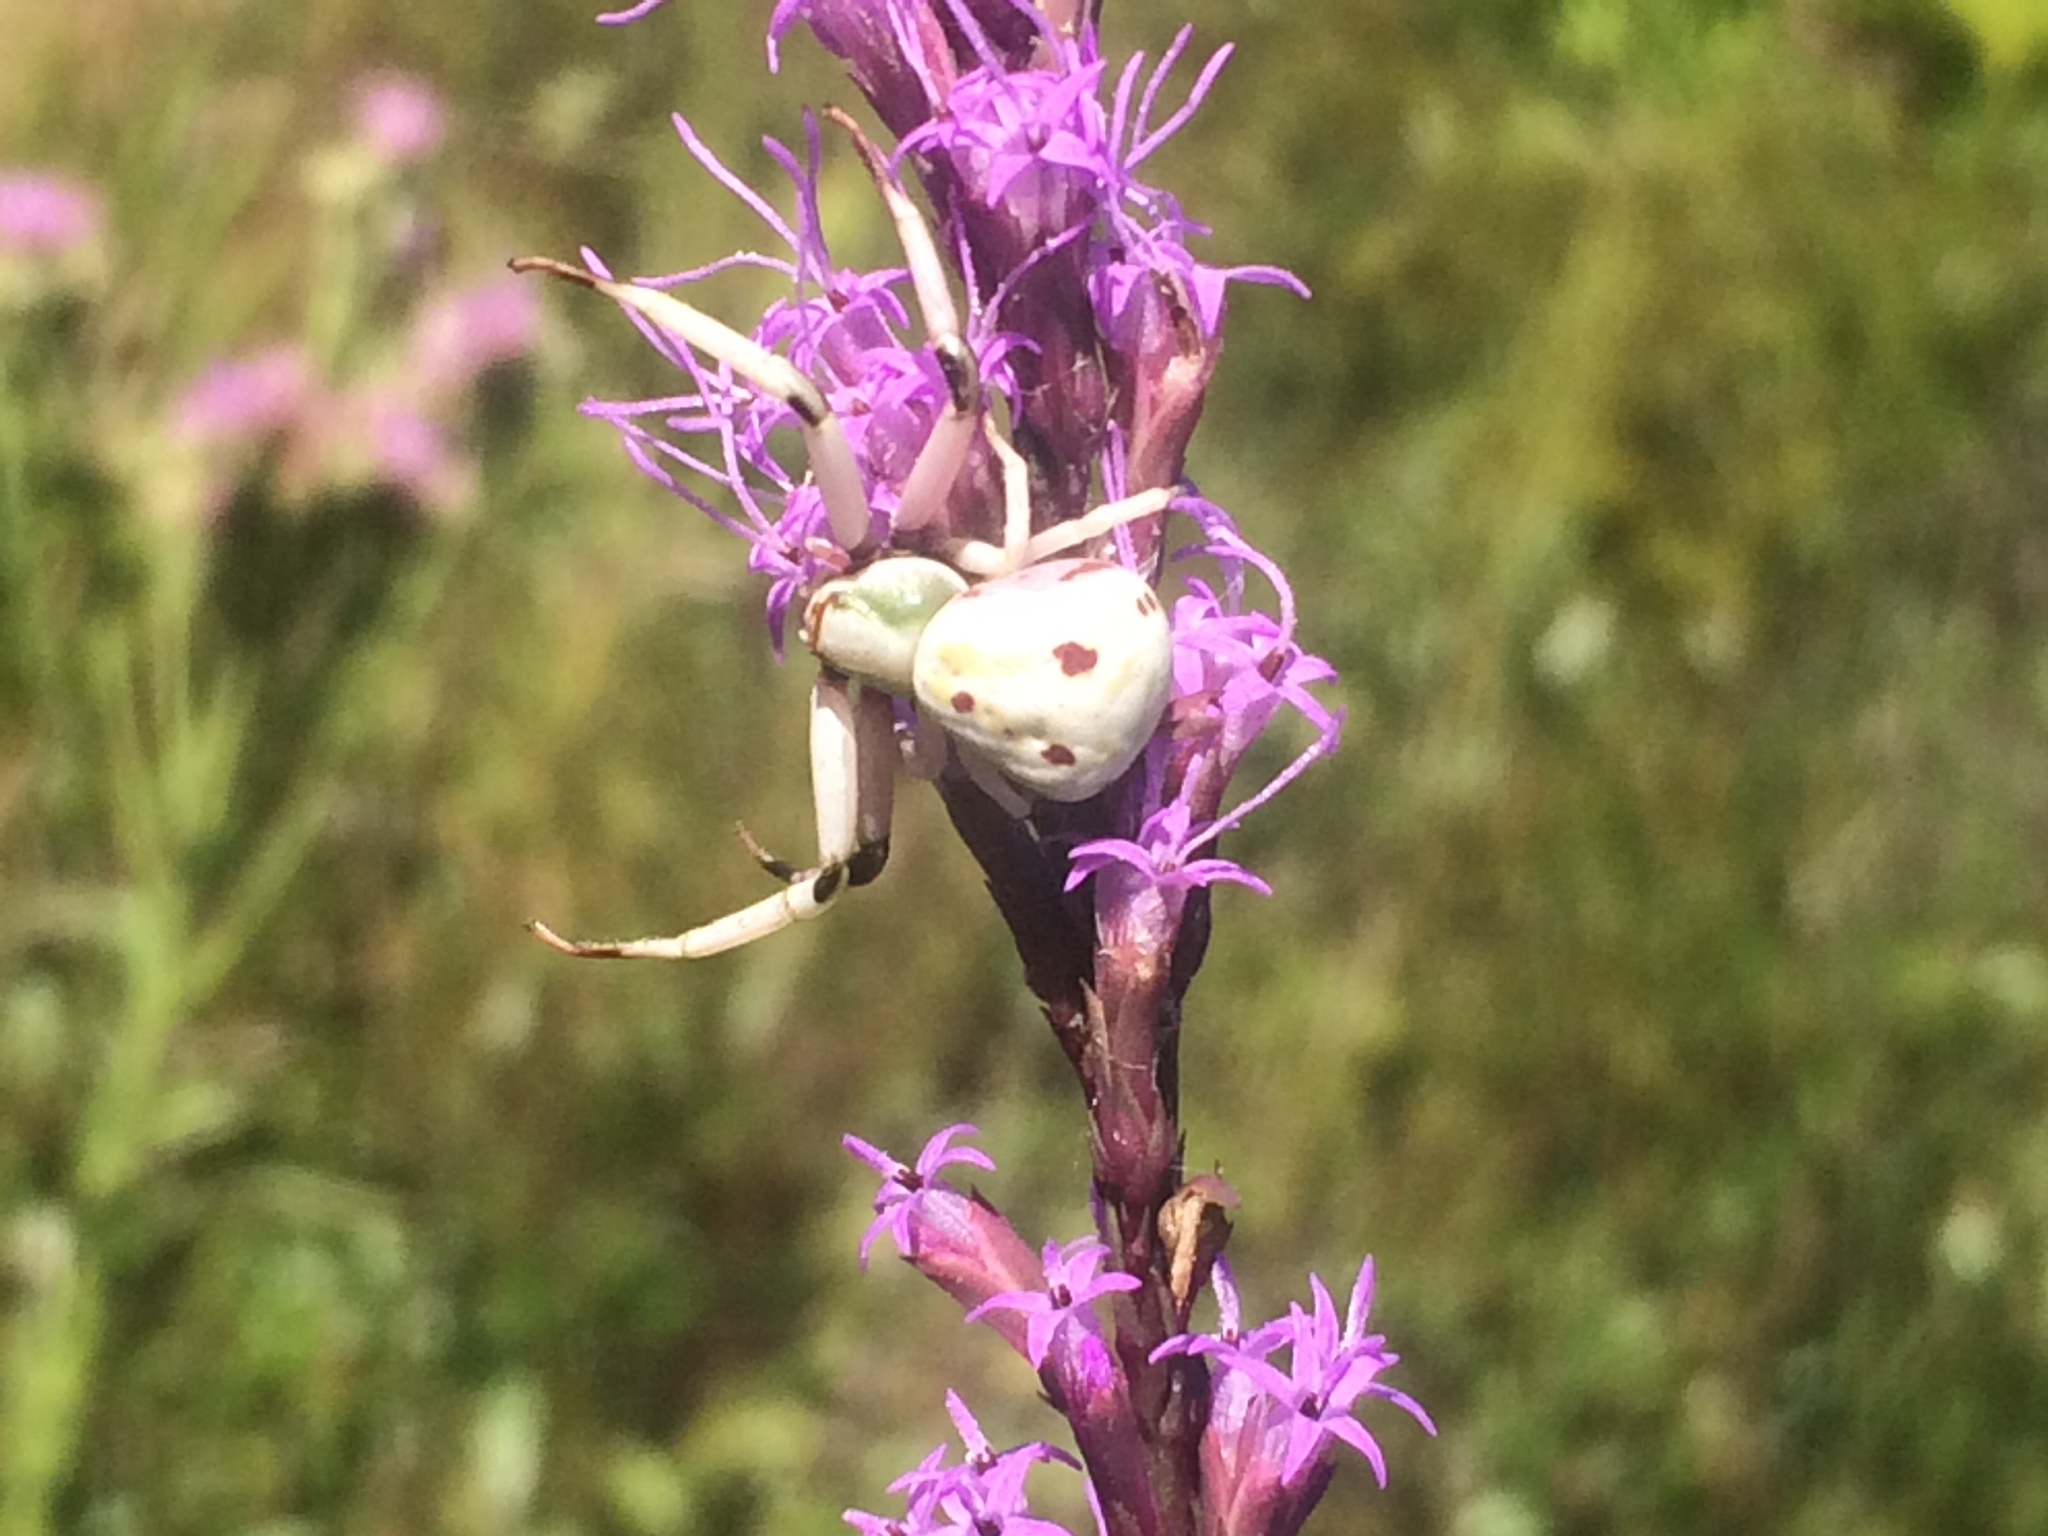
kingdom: Animalia
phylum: Arthropoda
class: Arachnida
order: Araneae
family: Thomisidae
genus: Misumenoides
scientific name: Misumenoides formosipes
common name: White-banded crab spider
